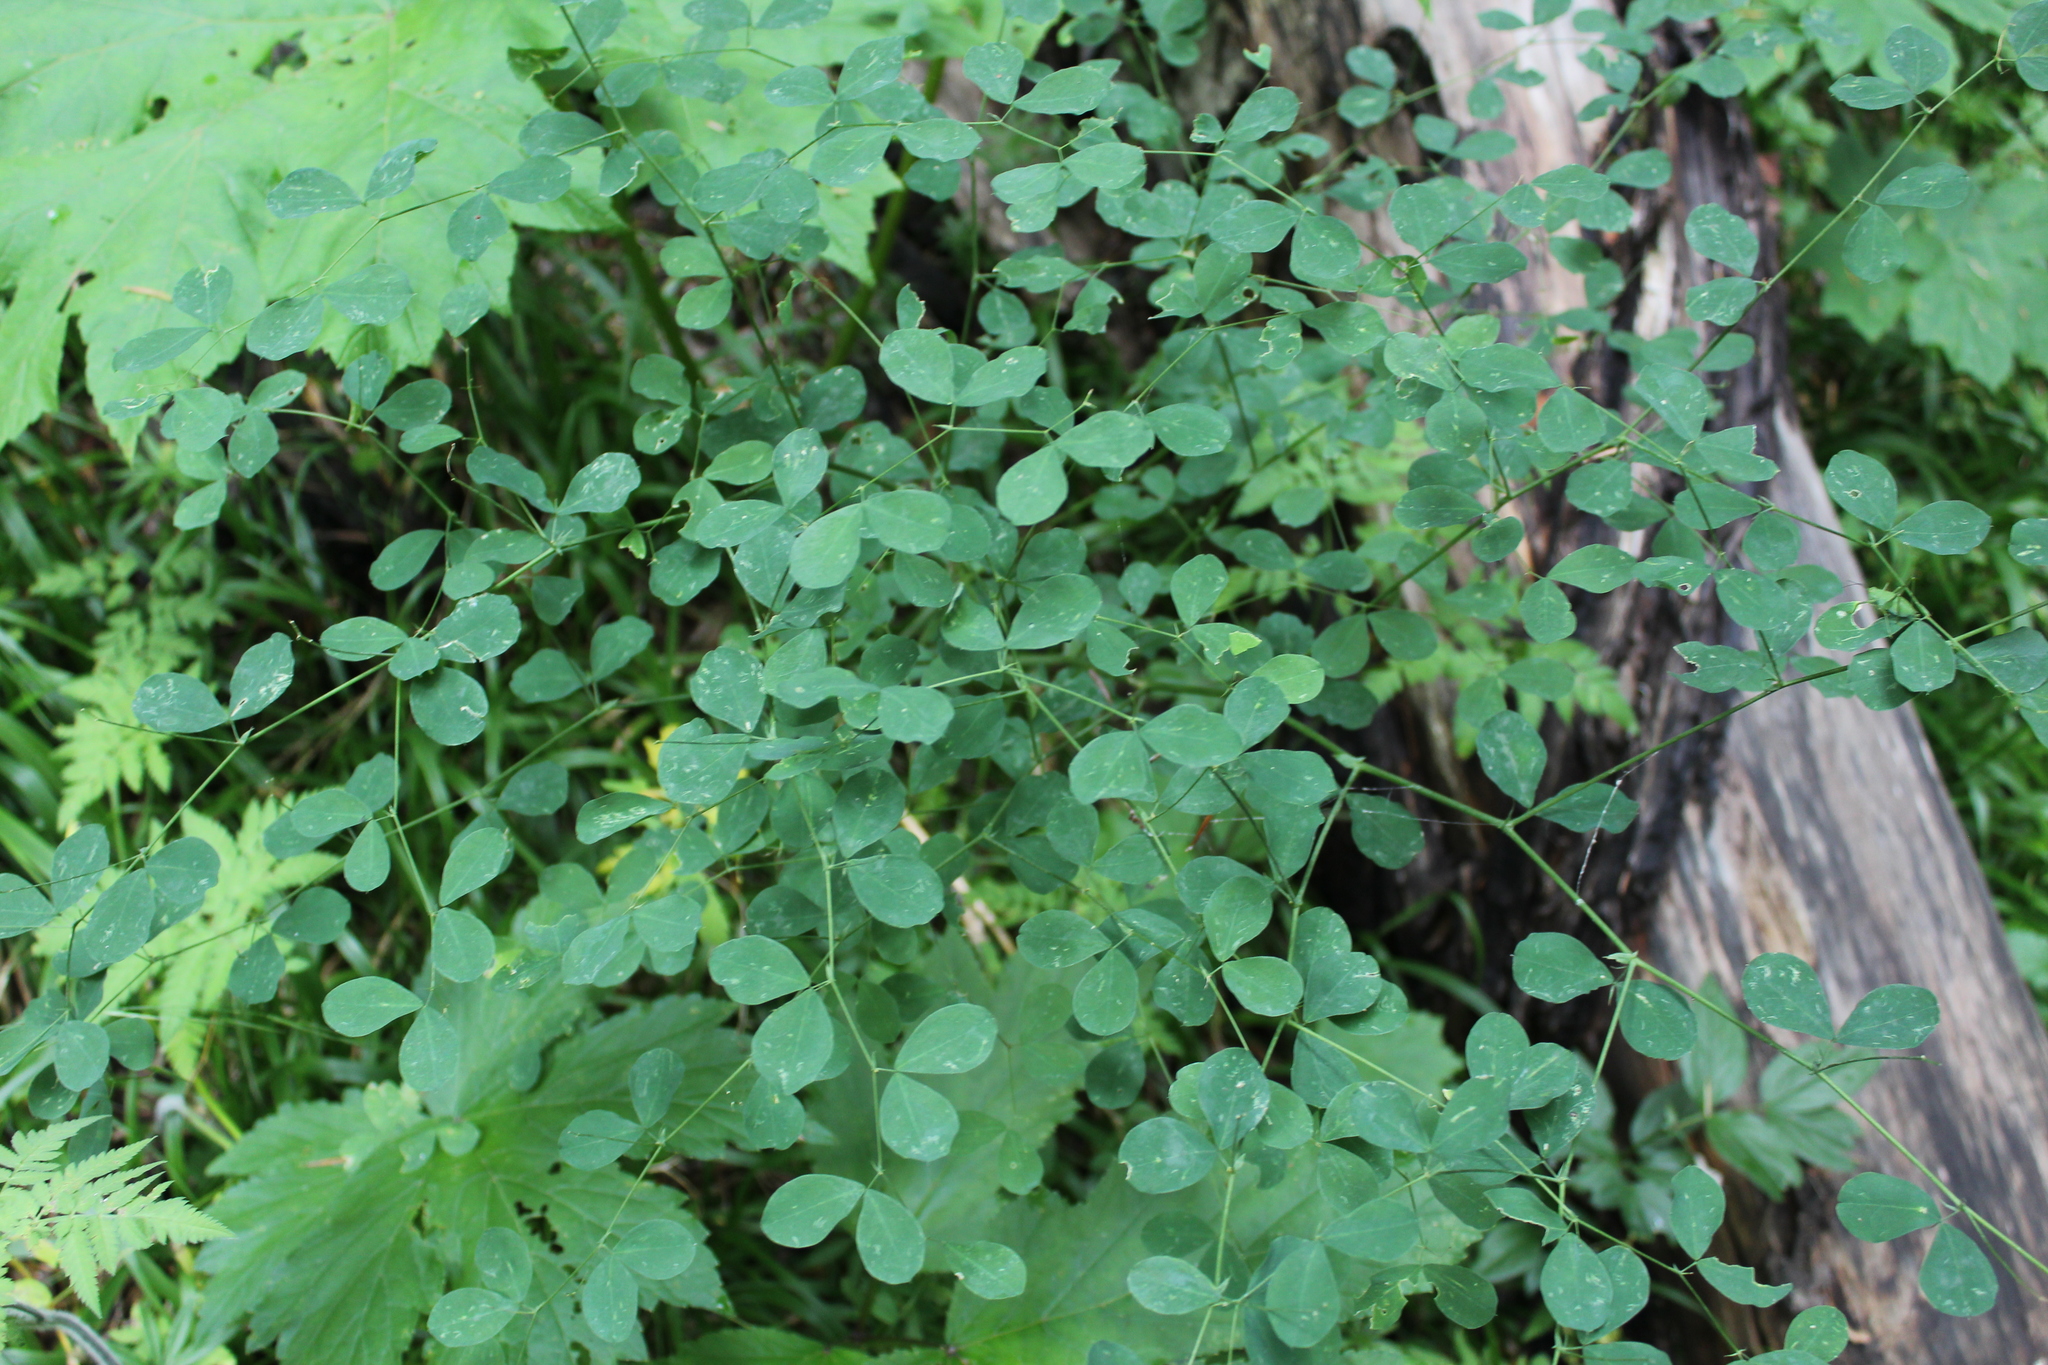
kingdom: Plantae
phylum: Tracheophyta
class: Magnoliopsida
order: Fabales
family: Fabaceae
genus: Lathyrus
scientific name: Lathyrus roseus
